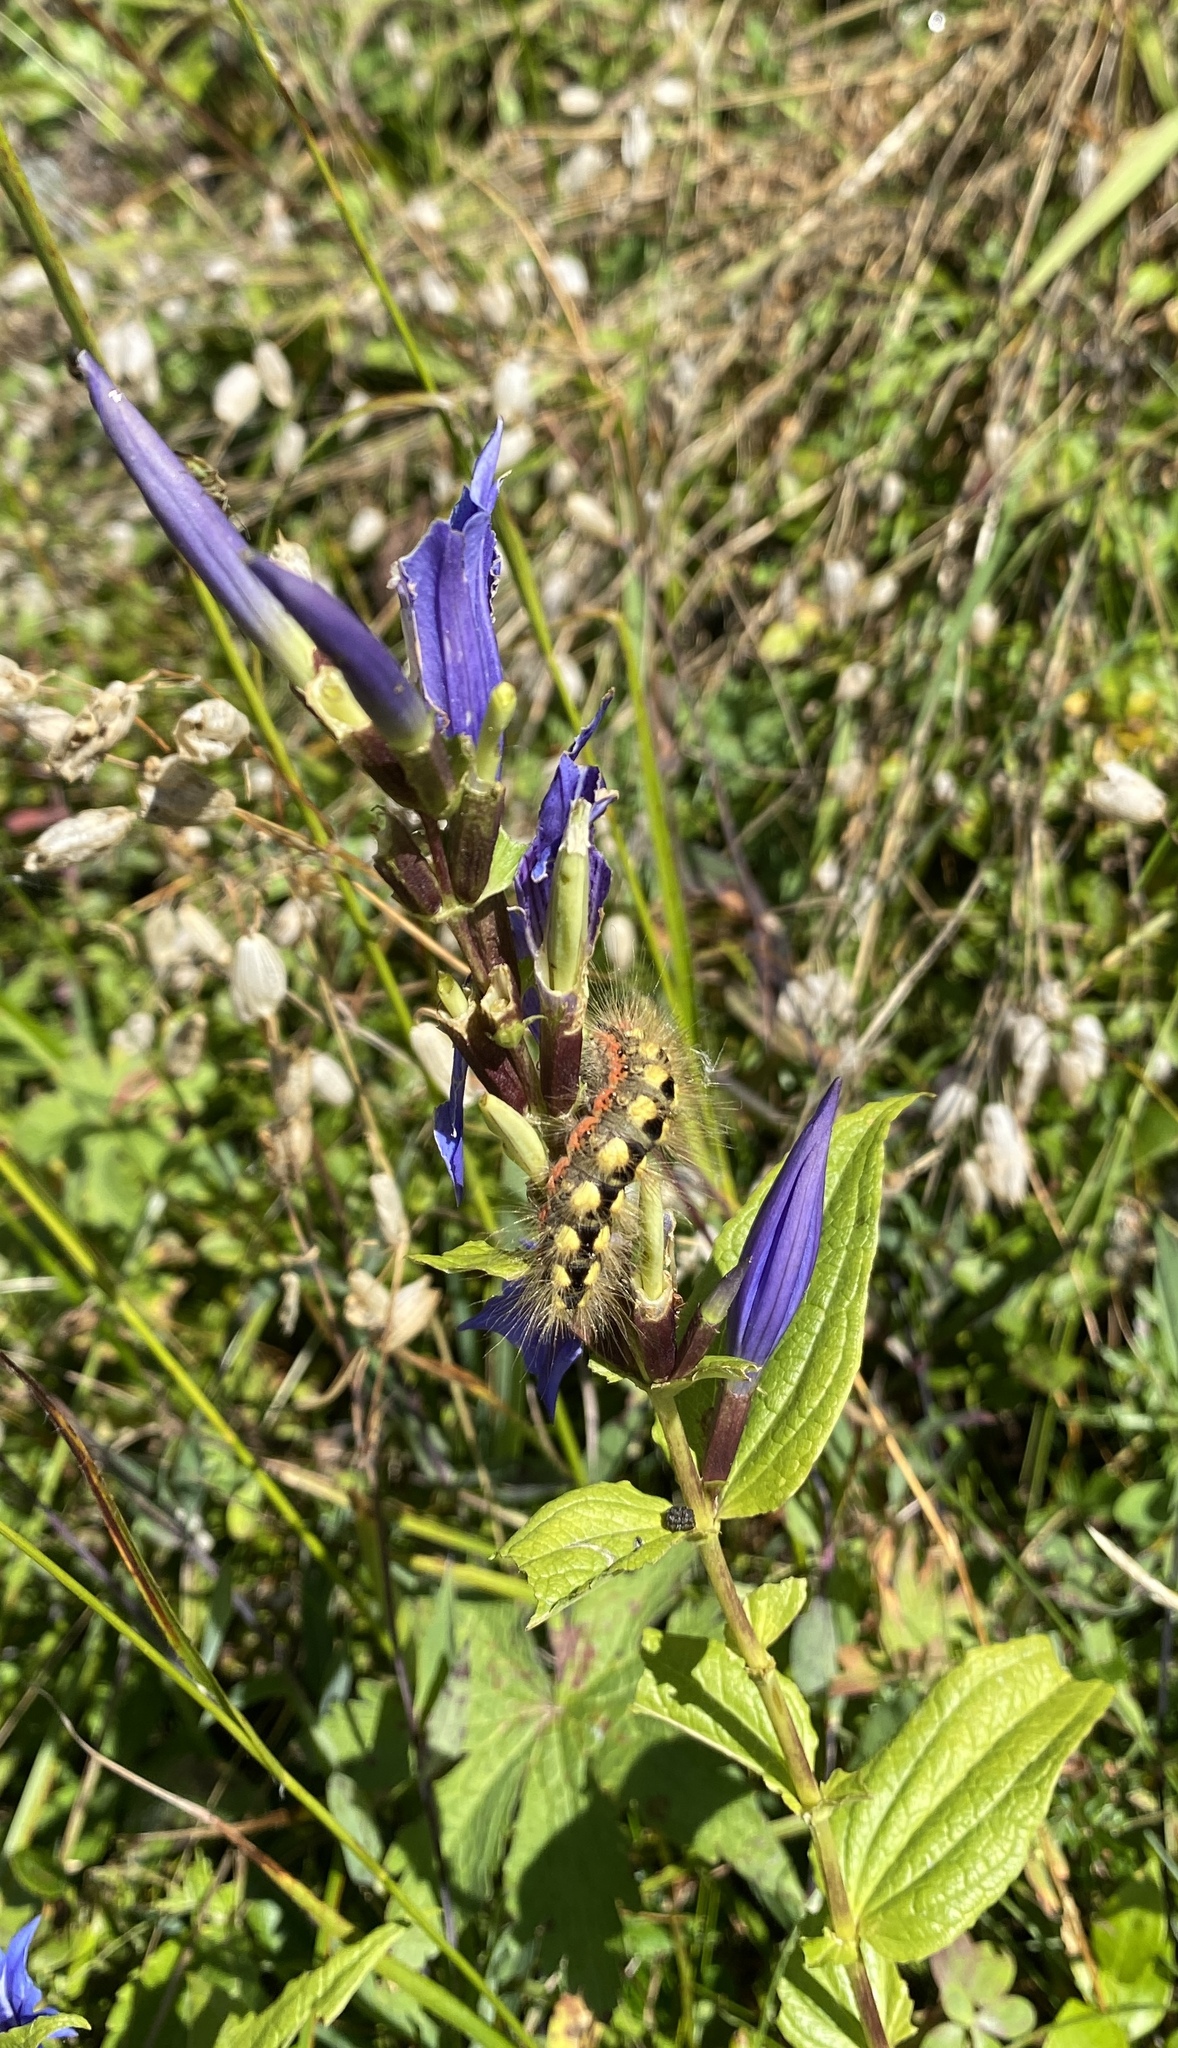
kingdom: Plantae
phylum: Tracheophyta
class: Magnoliopsida
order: Gentianales
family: Gentianaceae
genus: Gentiana
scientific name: Gentiana asclepiadea
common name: Willow gentian
